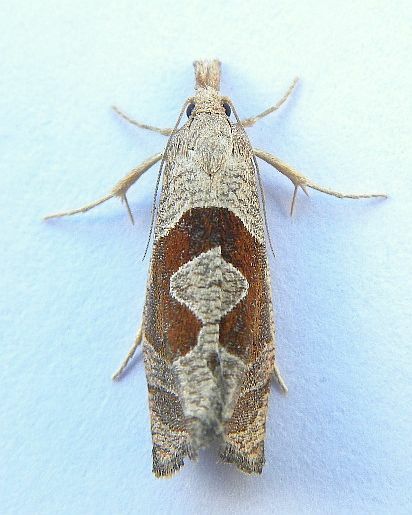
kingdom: Animalia
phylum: Arthropoda
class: Insecta
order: Lepidoptera
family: Tortricidae
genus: Pelochrista
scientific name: Pelochrista similiana
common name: Similar eucosma
